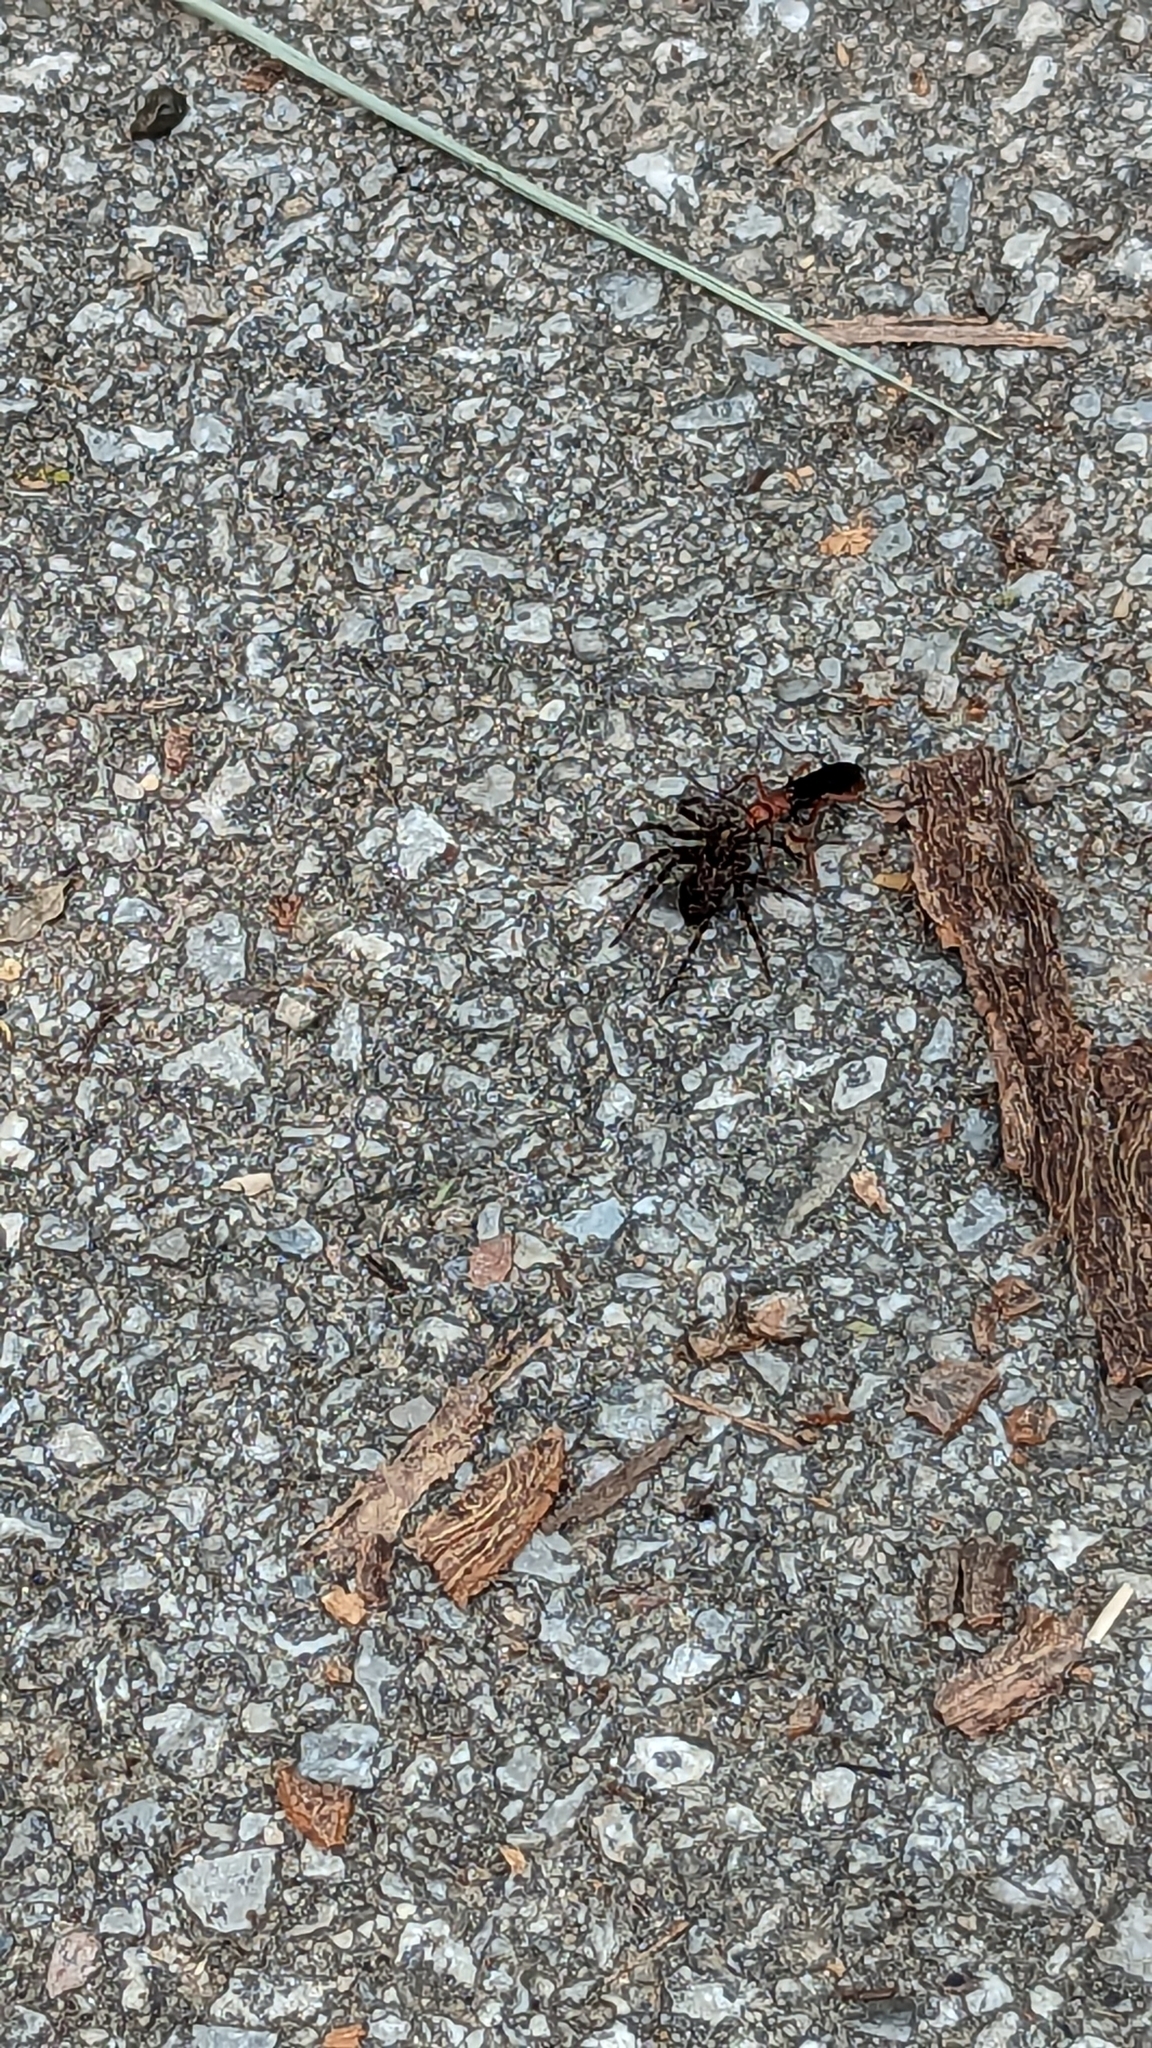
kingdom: Animalia
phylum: Arthropoda
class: Insecta
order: Hymenoptera
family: Pompilidae
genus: Tachypompilus
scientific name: Tachypompilus ferrugineus
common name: Rusty spider wasp
